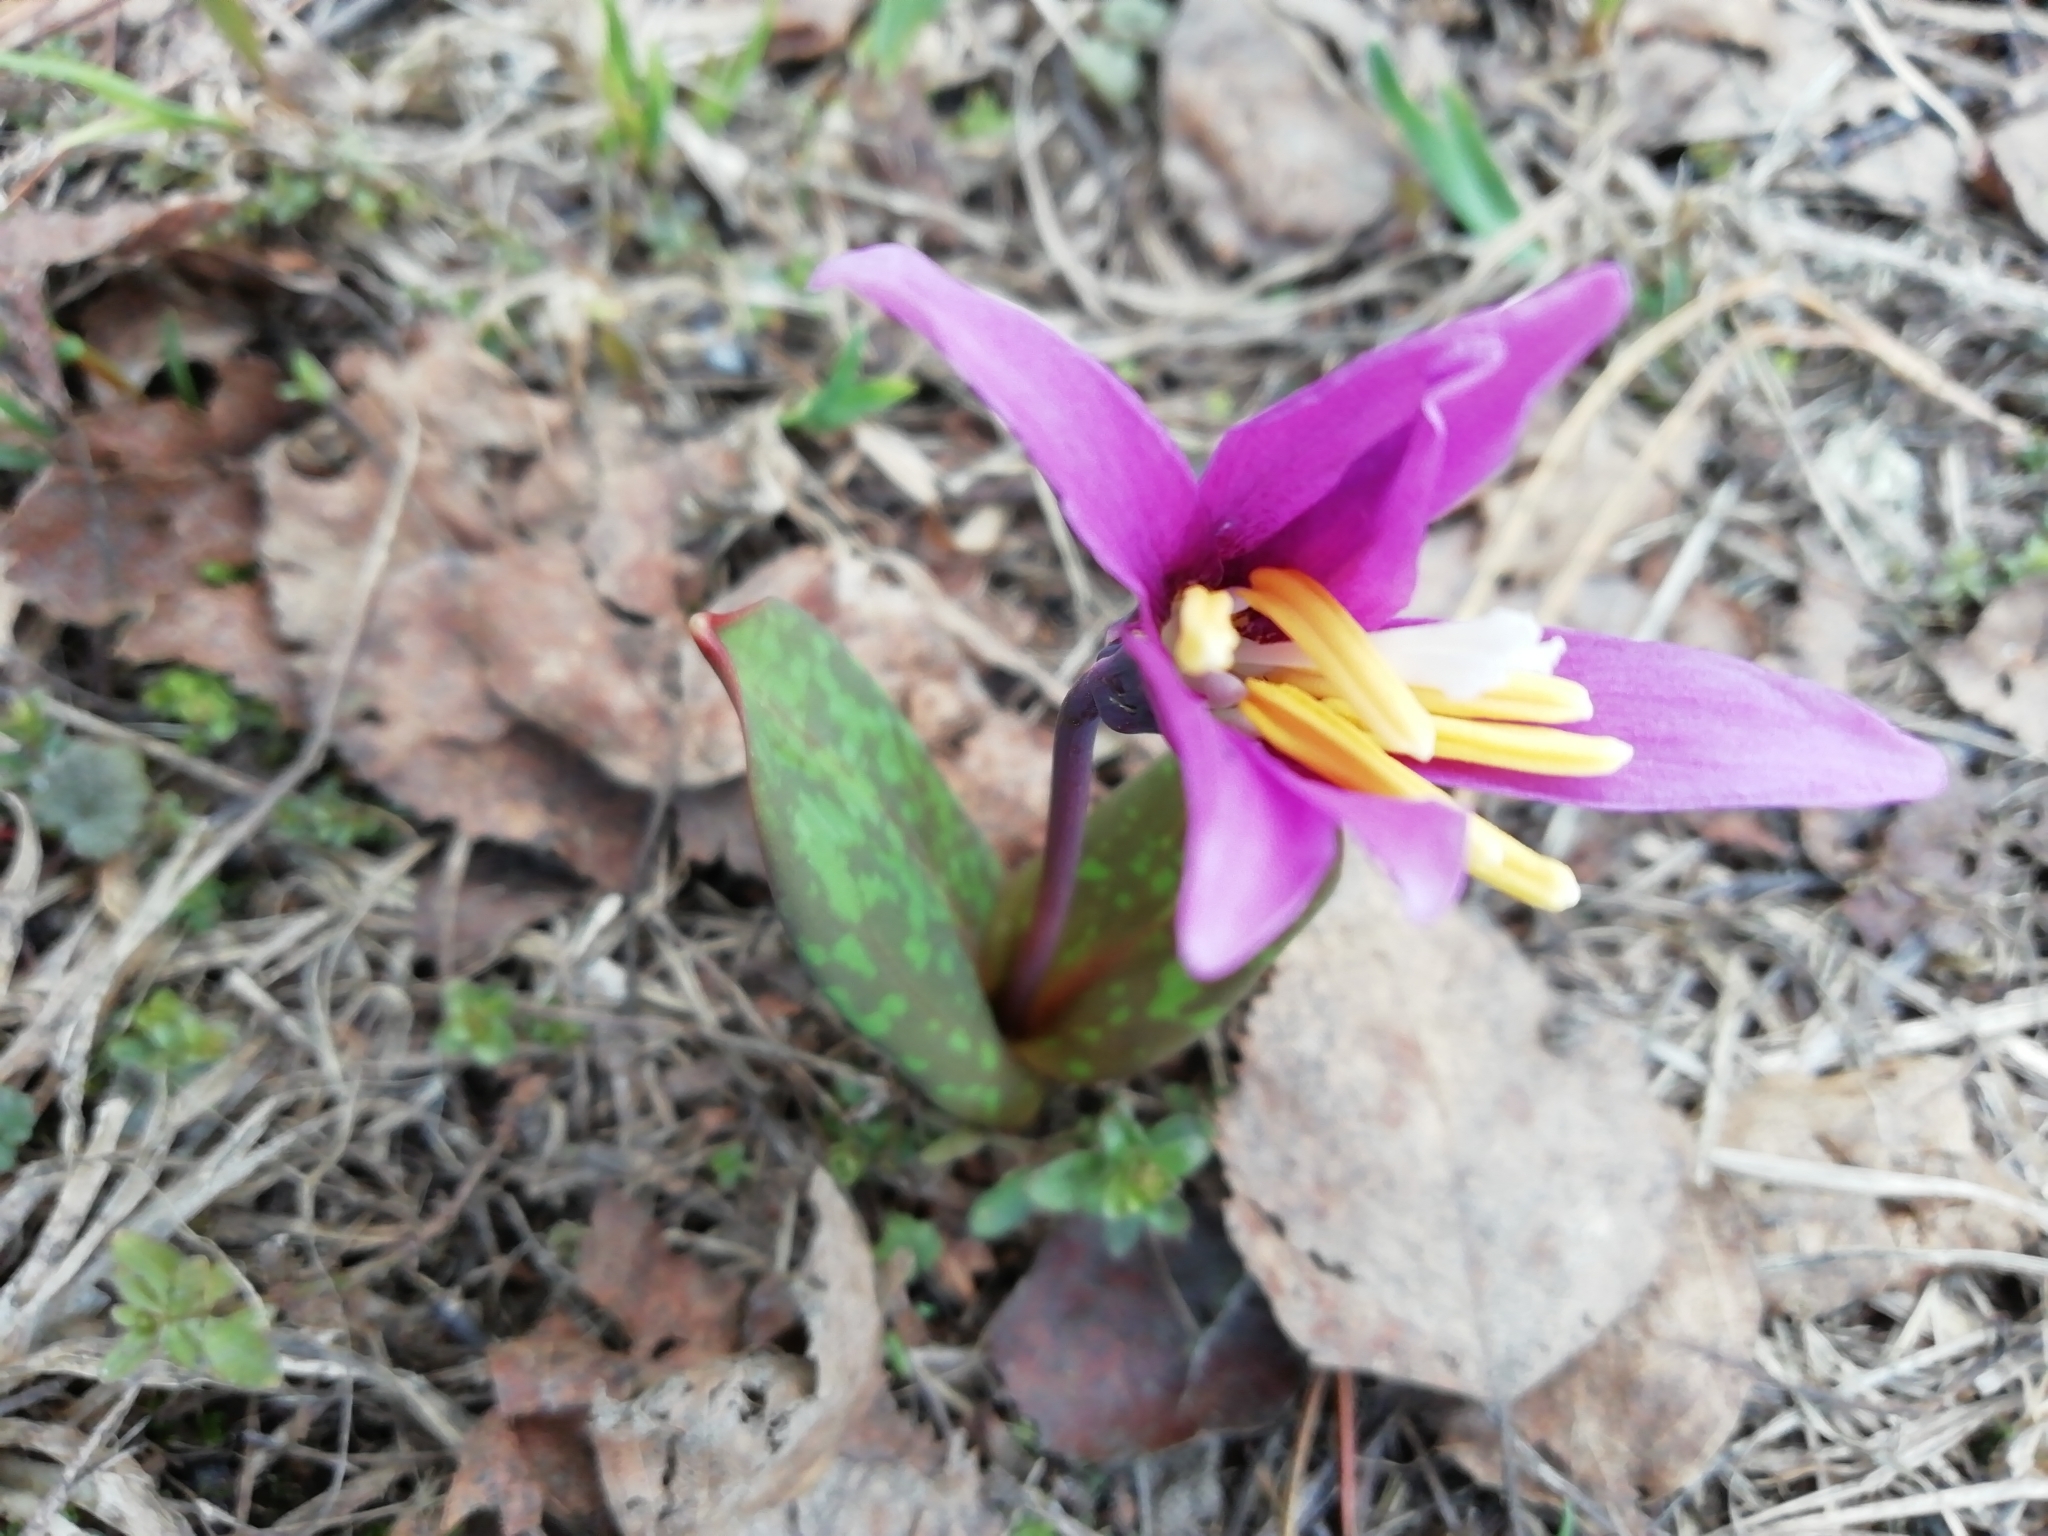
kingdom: Plantae
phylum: Tracheophyta
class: Liliopsida
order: Liliales
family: Liliaceae
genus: Erythronium
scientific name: Erythronium sibiricum
